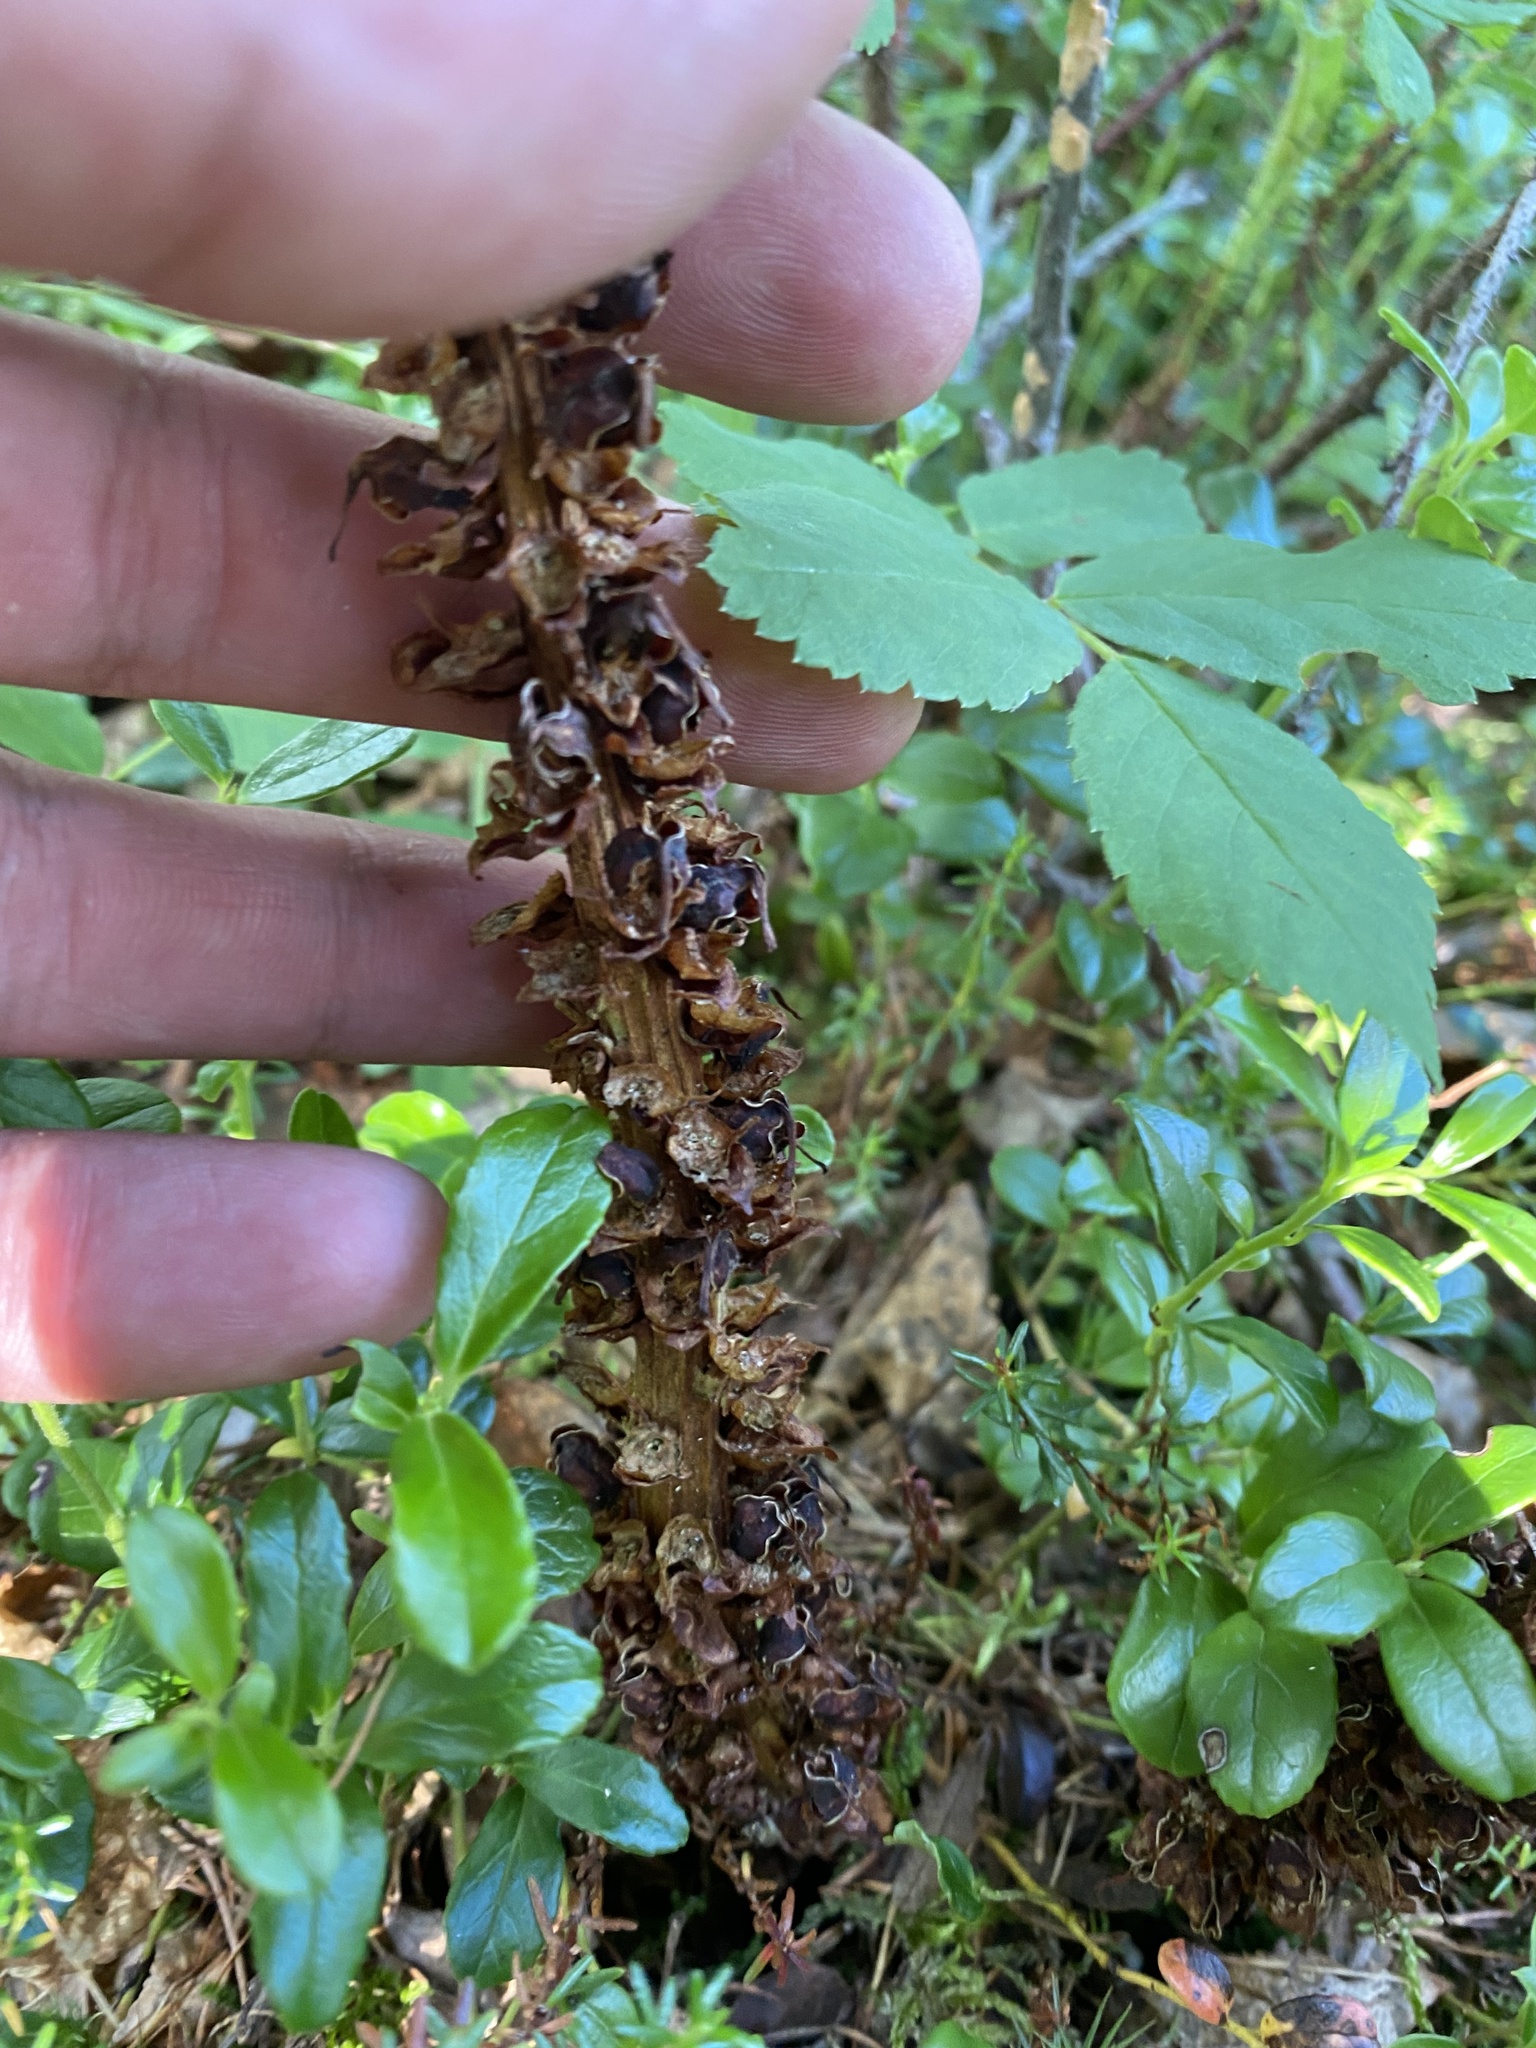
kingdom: Plantae
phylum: Tracheophyta
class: Magnoliopsida
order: Lamiales
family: Orobanchaceae
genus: Boschniakia
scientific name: Boschniakia rossica
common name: Poque
